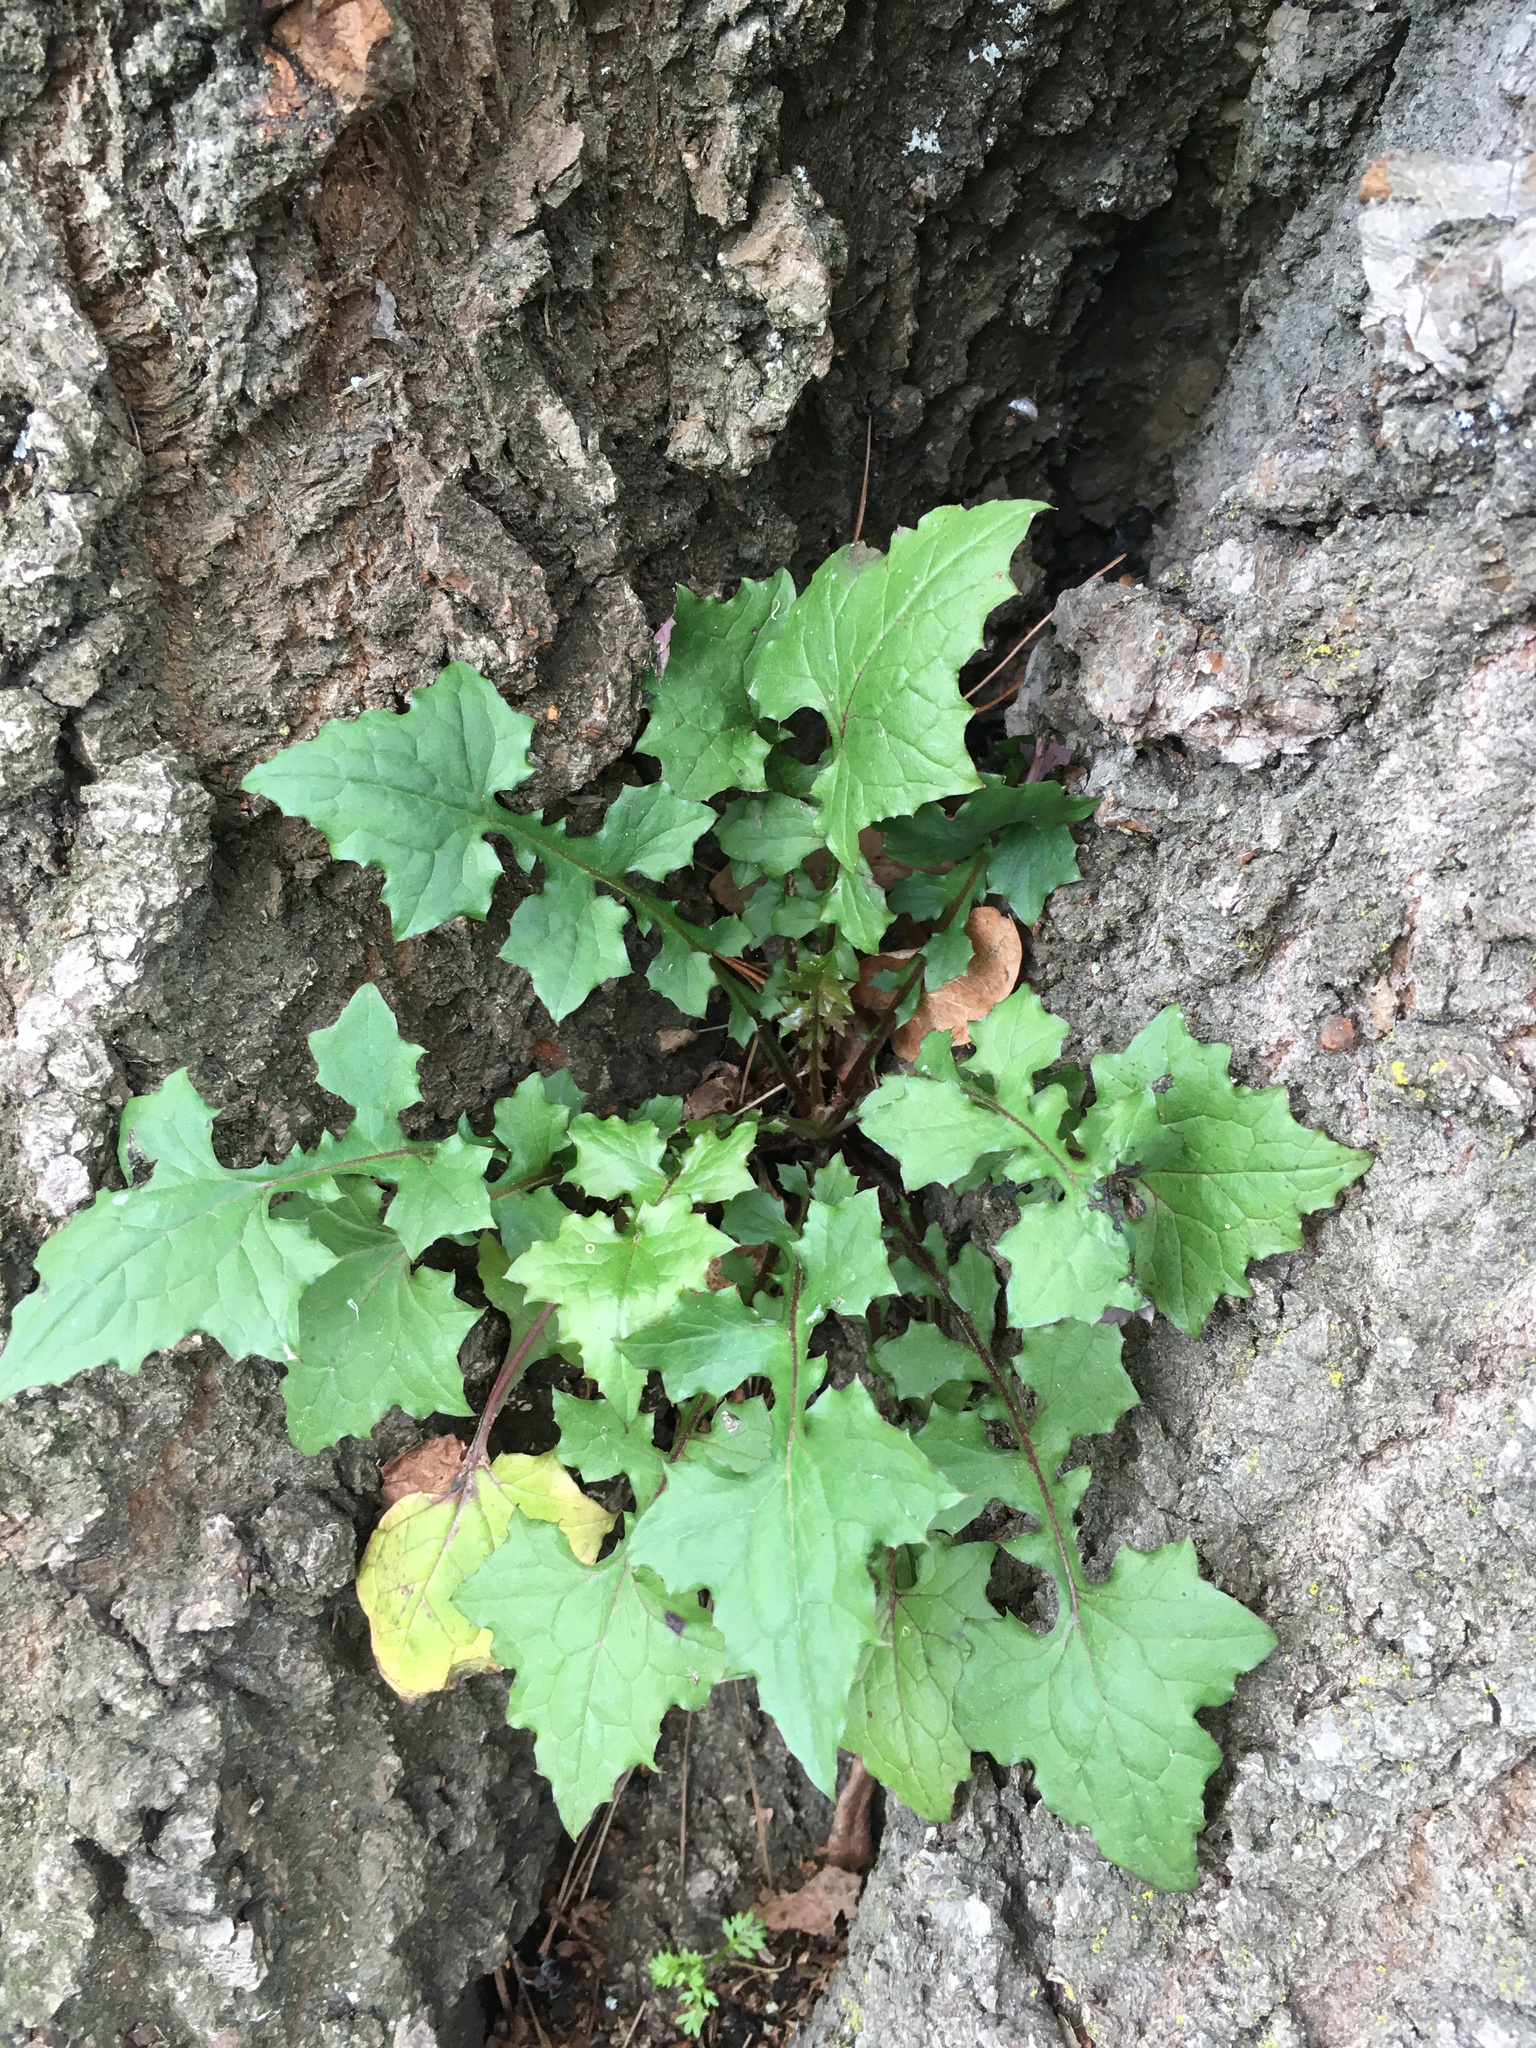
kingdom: Plantae
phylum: Tracheophyta
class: Magnoliopsida
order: Asterales
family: Asteraceae
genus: Mycelis
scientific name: Mycelis muralis
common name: Wall lettuce
